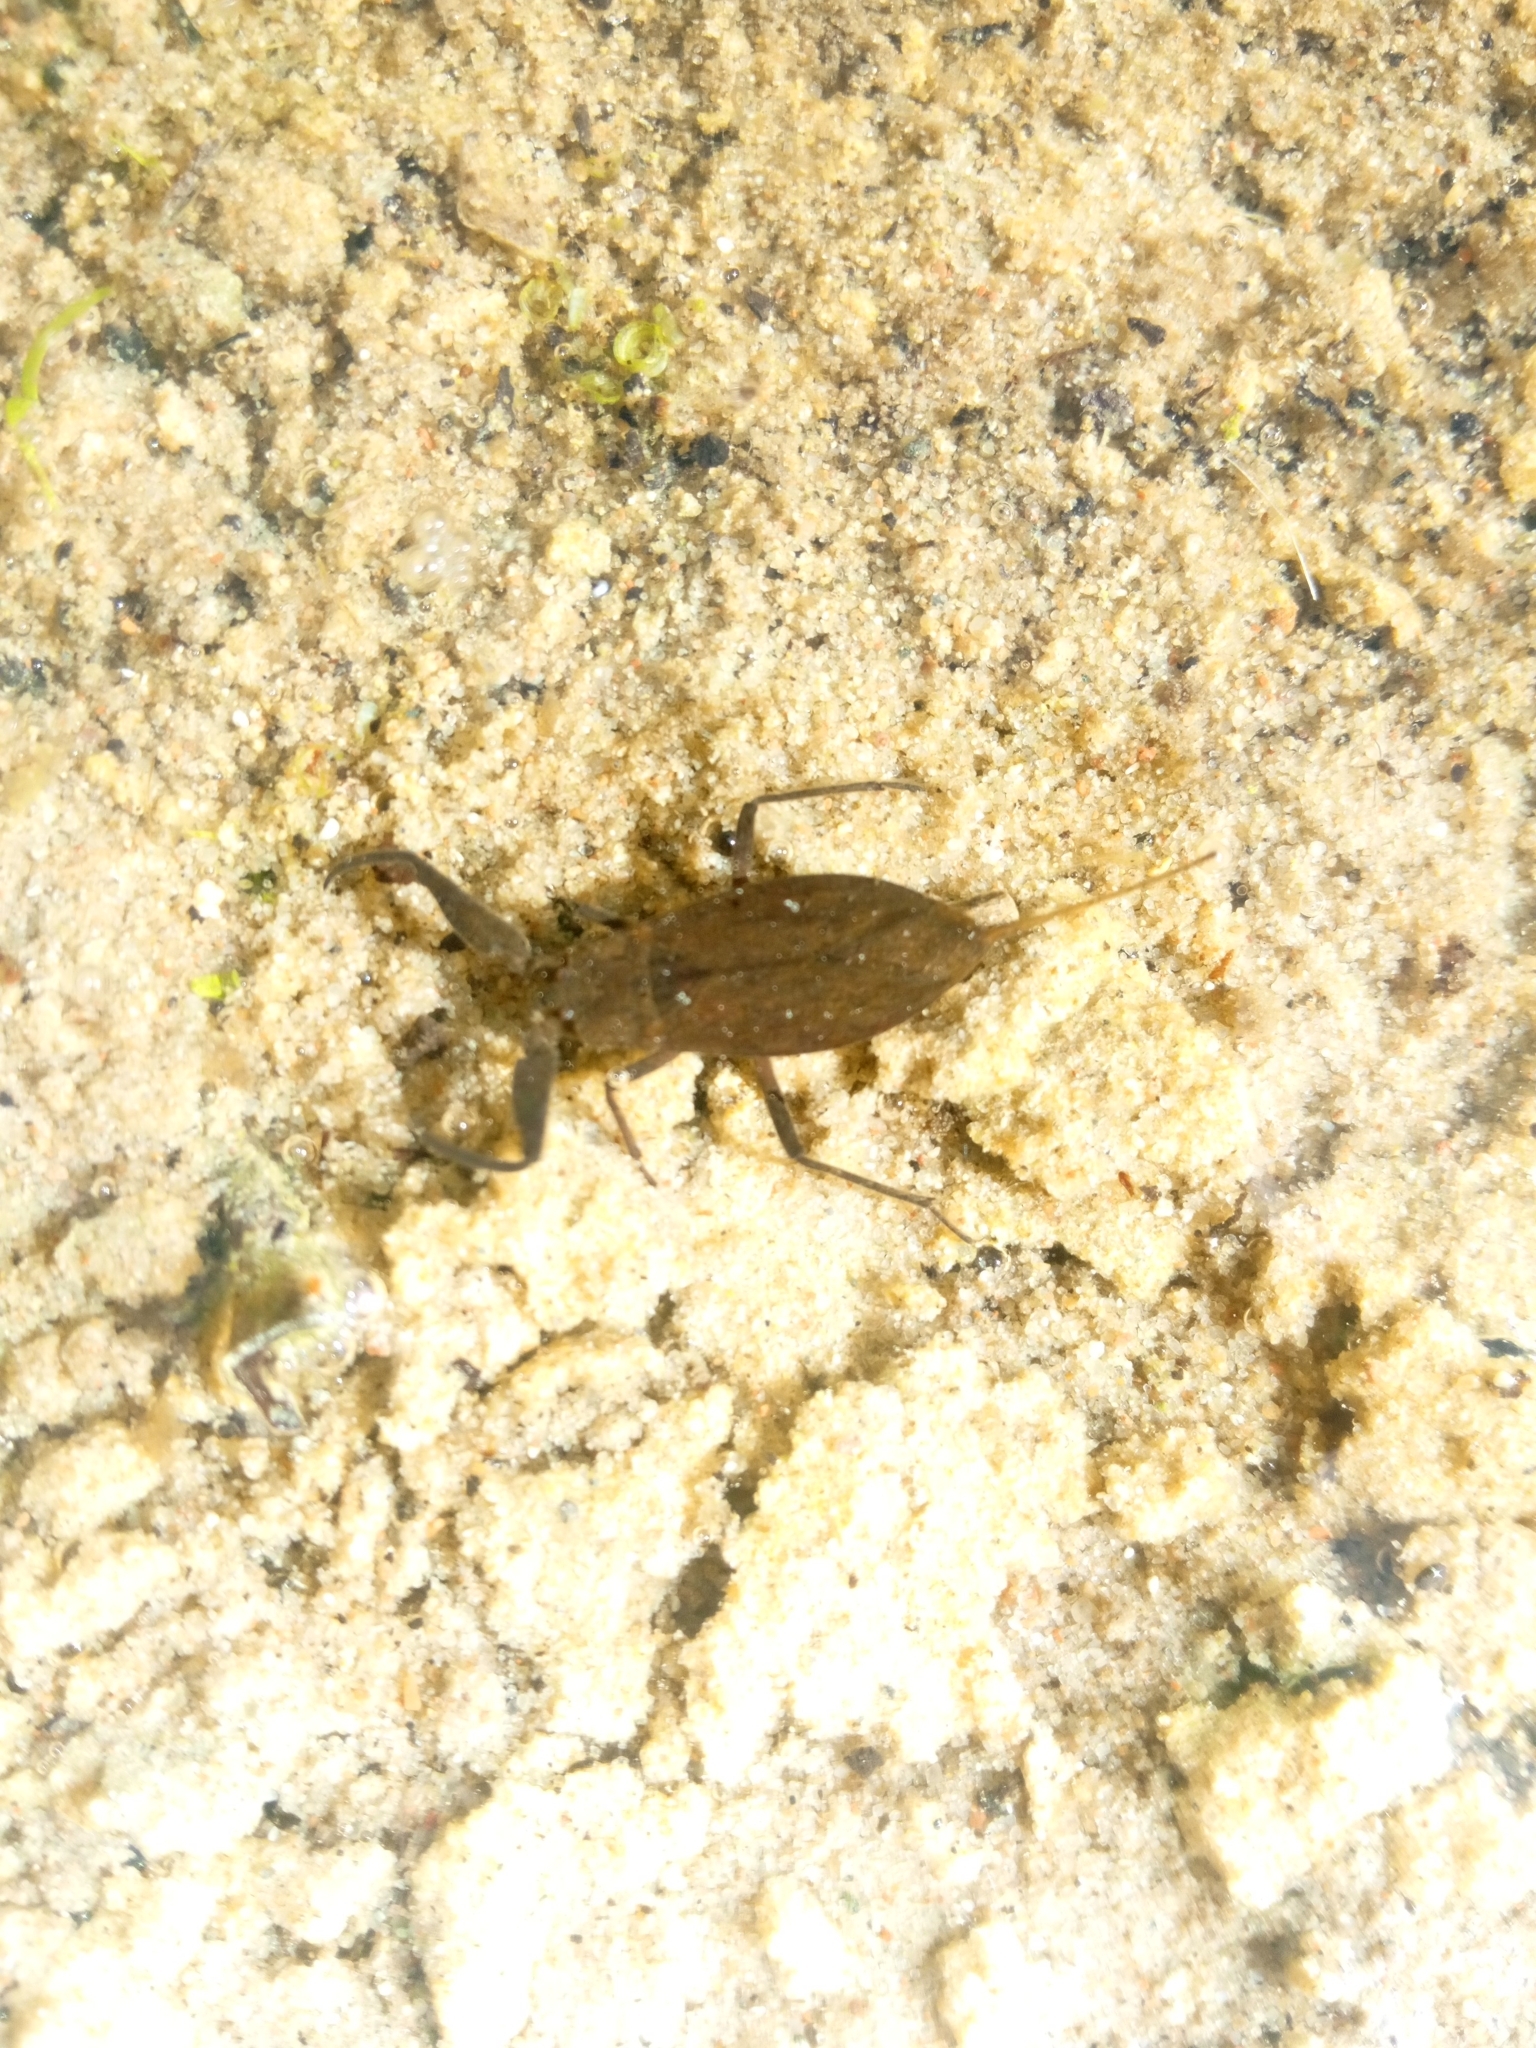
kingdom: Animalia
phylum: Arthropoda
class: Insecta
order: Hemiptera
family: Nepidae
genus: Nepa
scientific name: Nepa cinerea
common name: Water scorpion
